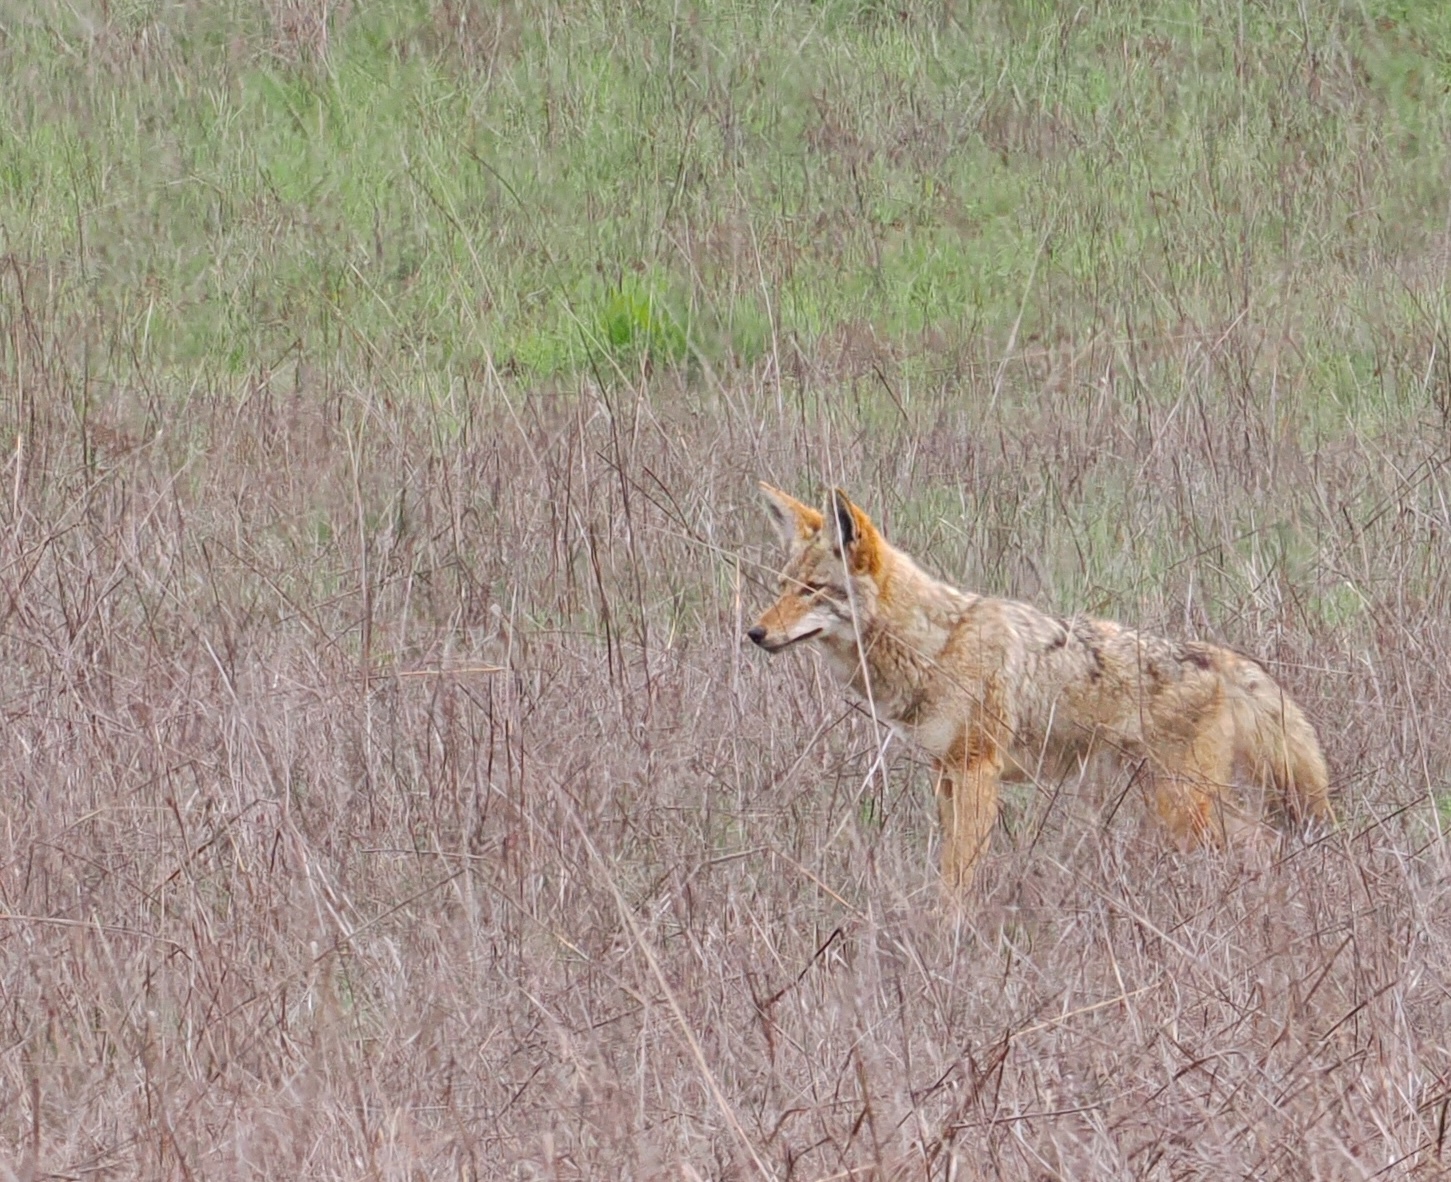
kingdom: Animalia
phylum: Chordata
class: Mammalia
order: Carnivora
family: Canidae
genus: Canis
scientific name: Canis latrans
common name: Coyote
